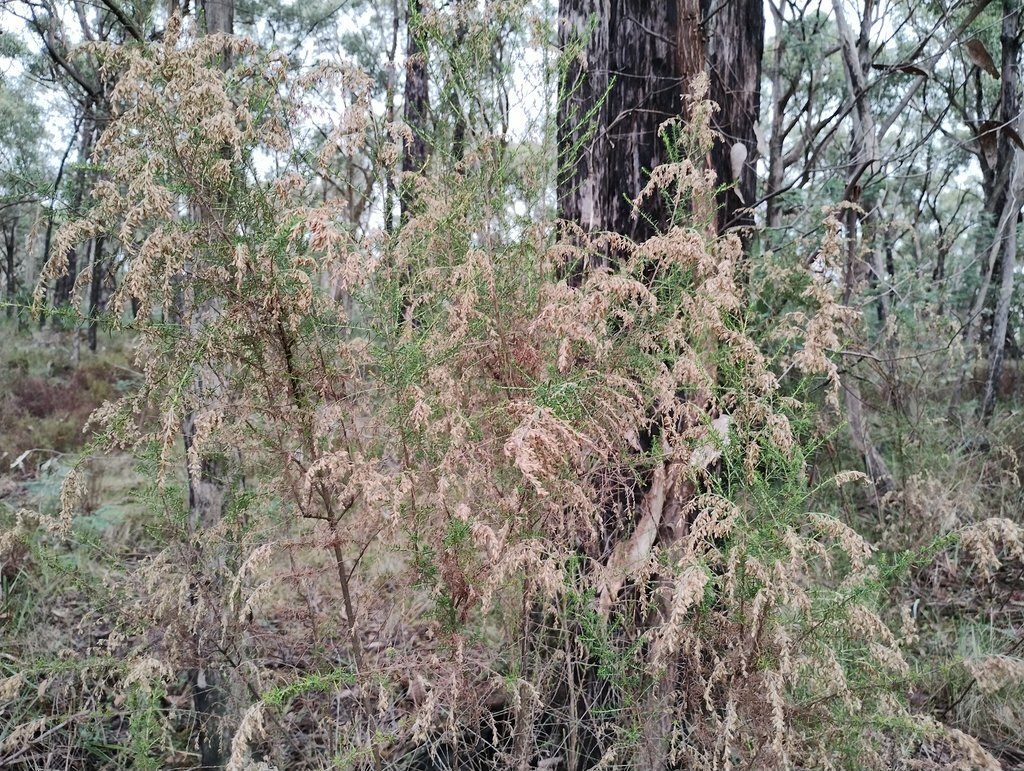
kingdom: Plantae
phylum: Tracheophyta
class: Magnoliopsida
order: Asterales
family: Asteraceae
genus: Cassinia
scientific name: Cassinia sifton
